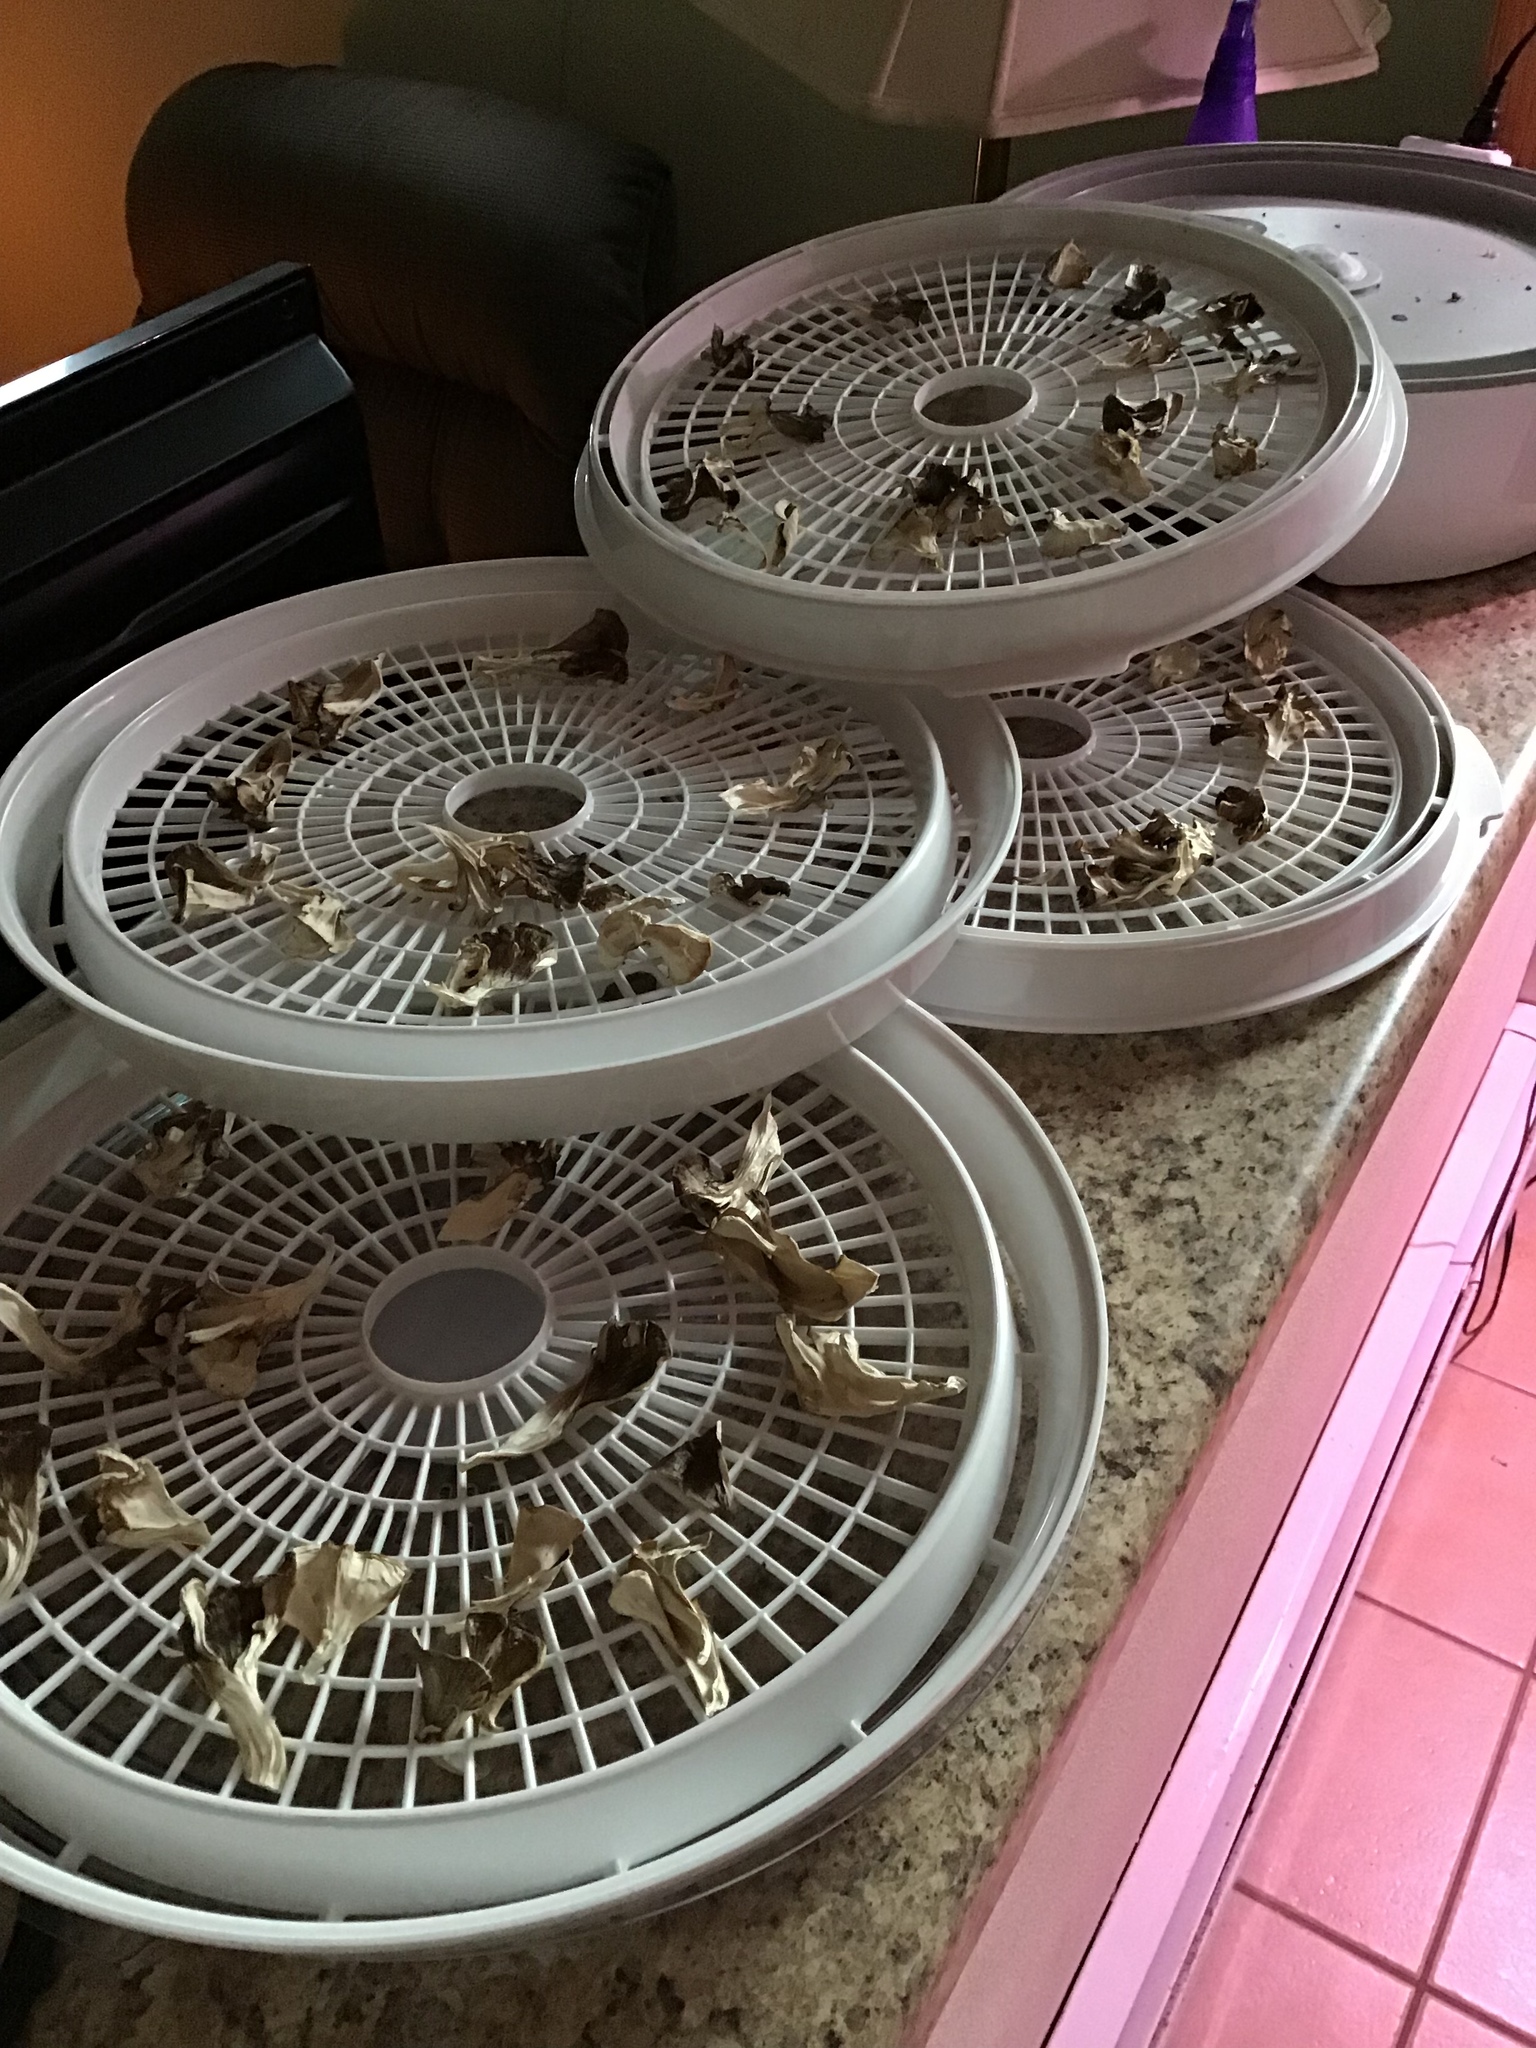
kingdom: Fungi
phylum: Basidiomycota
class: Agaricomycetes
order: Polyporales
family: Grifolaceae
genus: Grifola
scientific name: Grifola frondosa
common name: Hen of the woods
